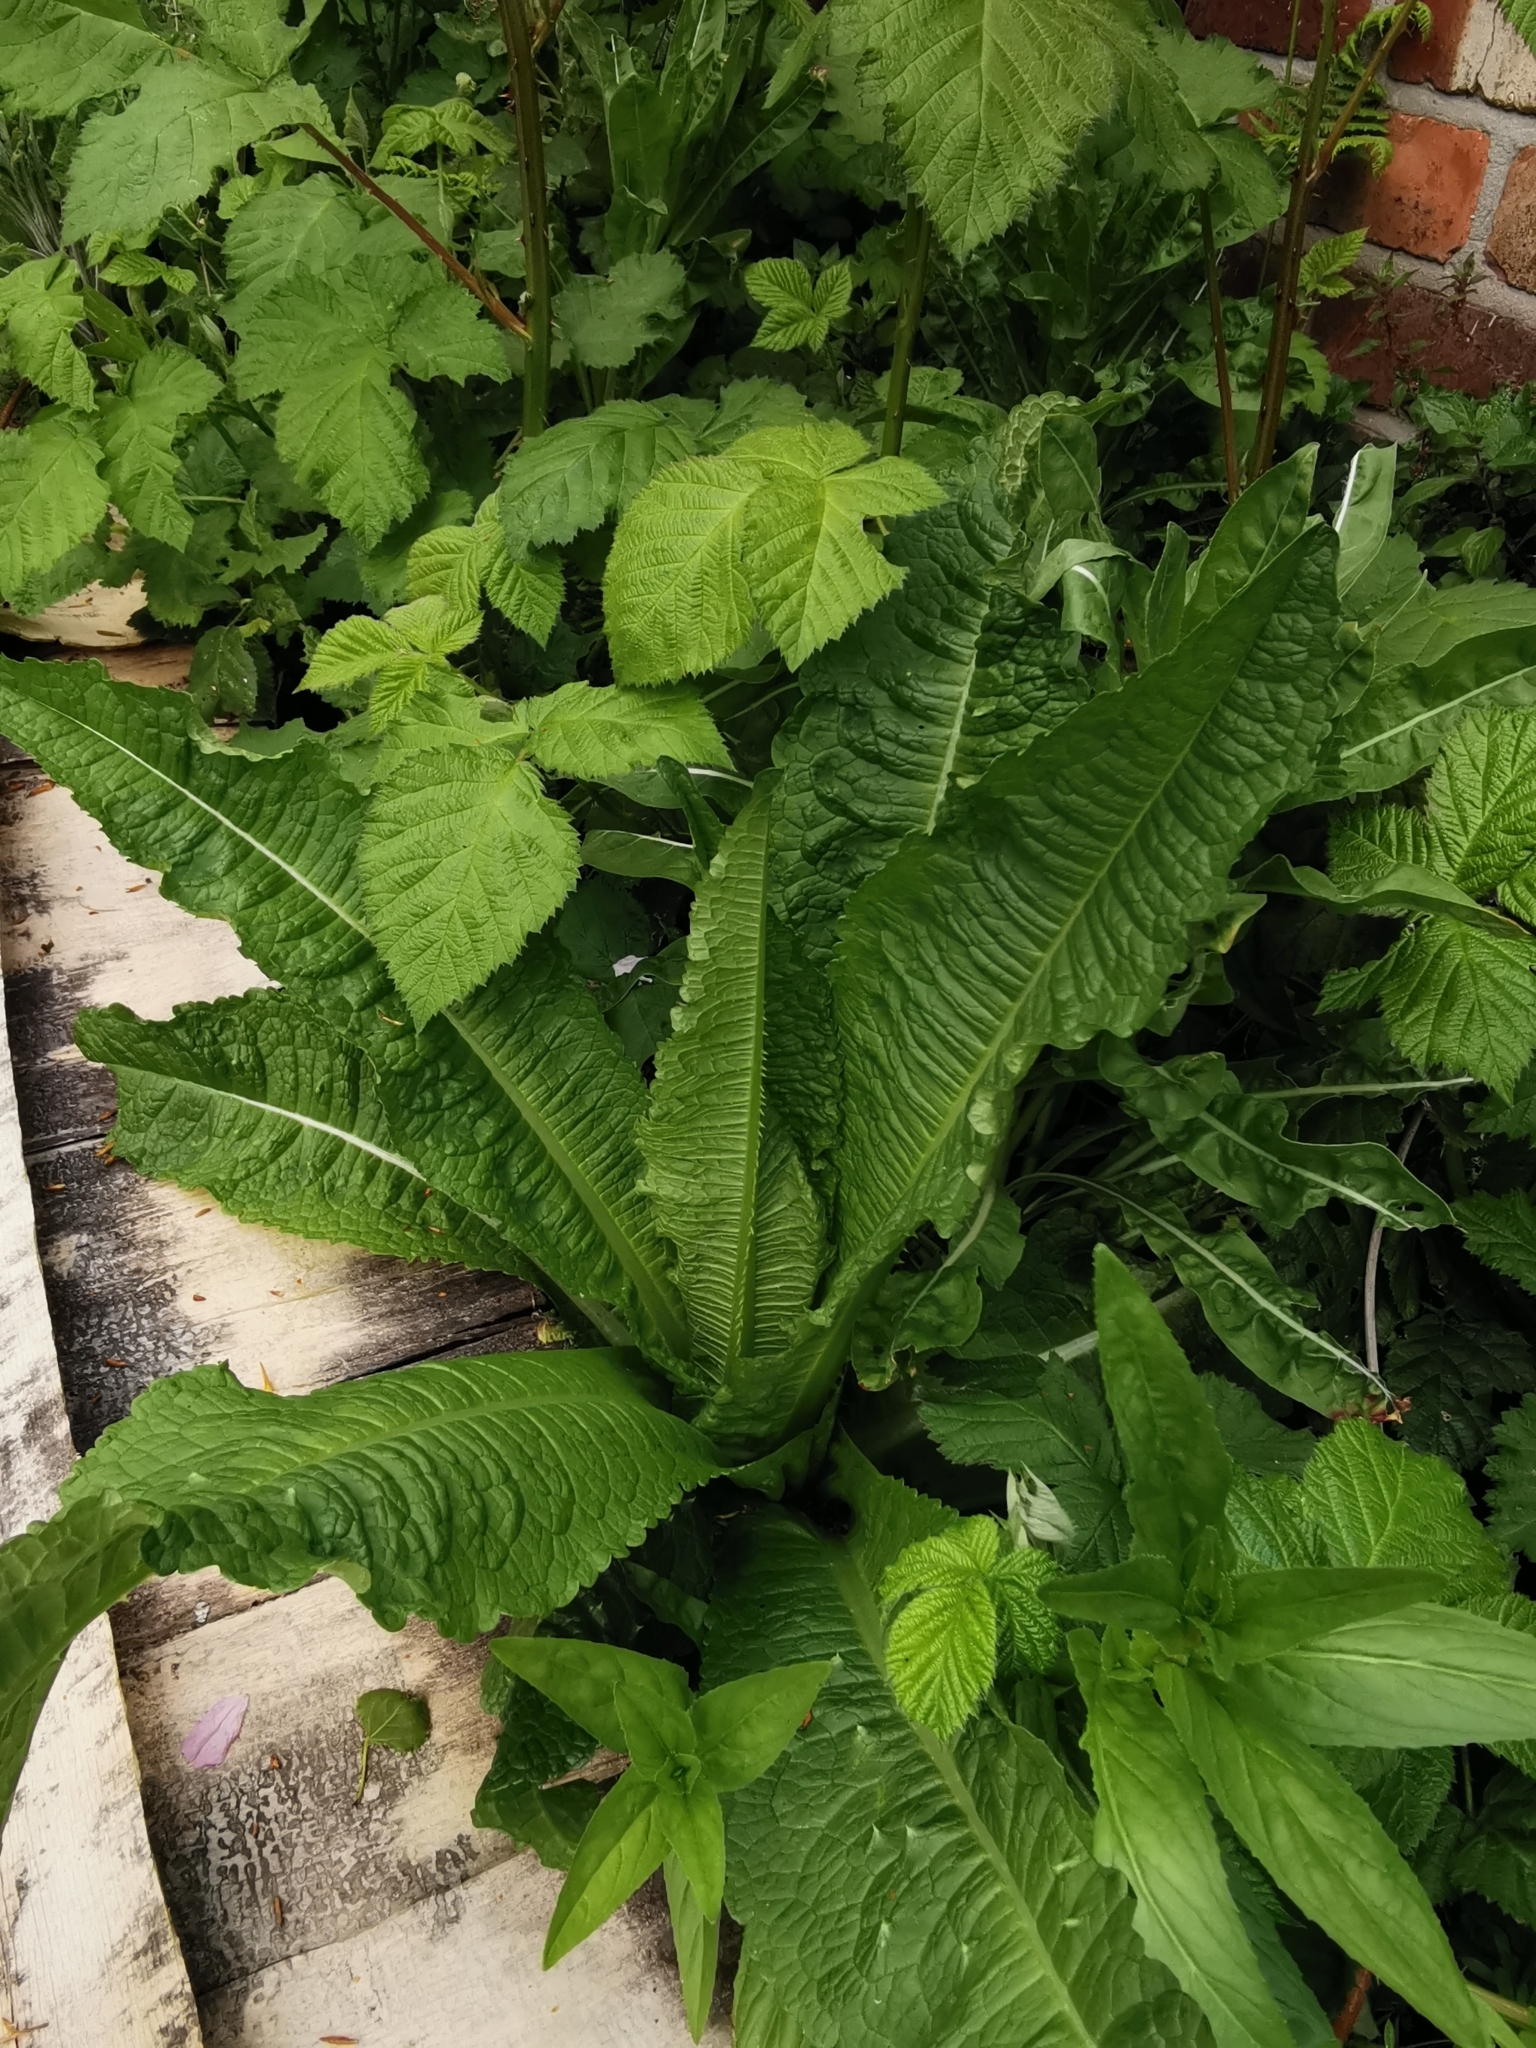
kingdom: Plantae
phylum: Tracheophyta
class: Magnoliopsida
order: Dipsacales
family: Caprifoliaceae
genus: Dipsacus
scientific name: Dipsacus fullonum
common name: Teasel
